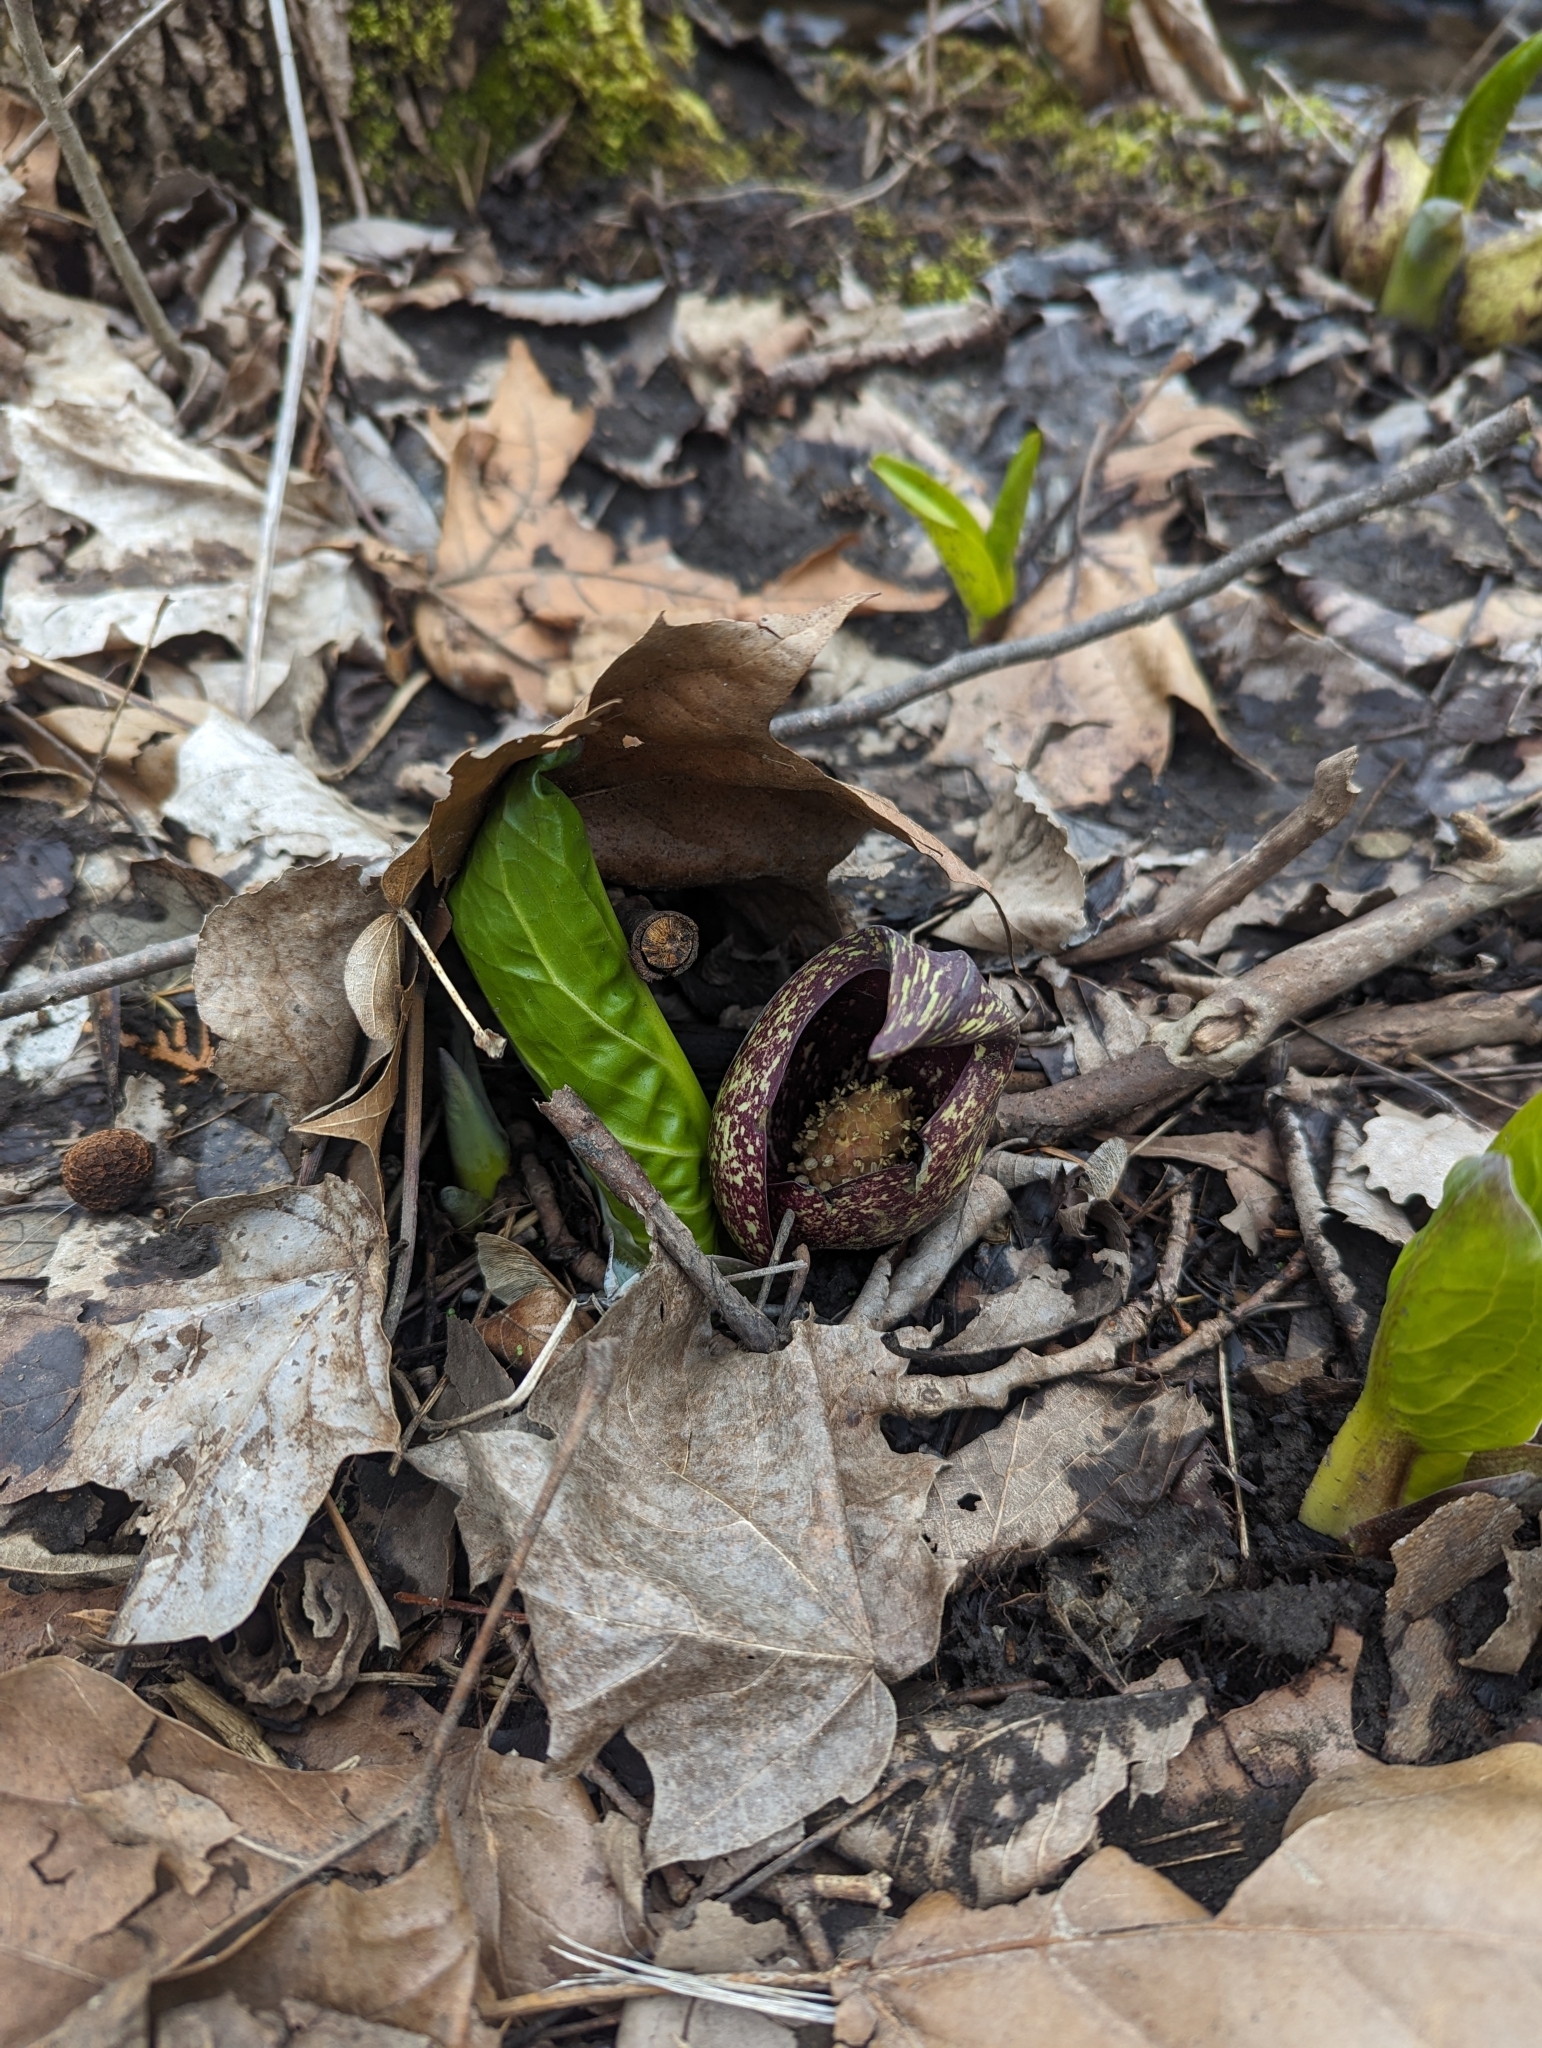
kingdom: Plantae
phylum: Tracheophyta
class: Liliopsida
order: Alismatales
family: Araceae
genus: Symplocarpus
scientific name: Symplocarpus foetidus
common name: Eastern skunk cabbage
